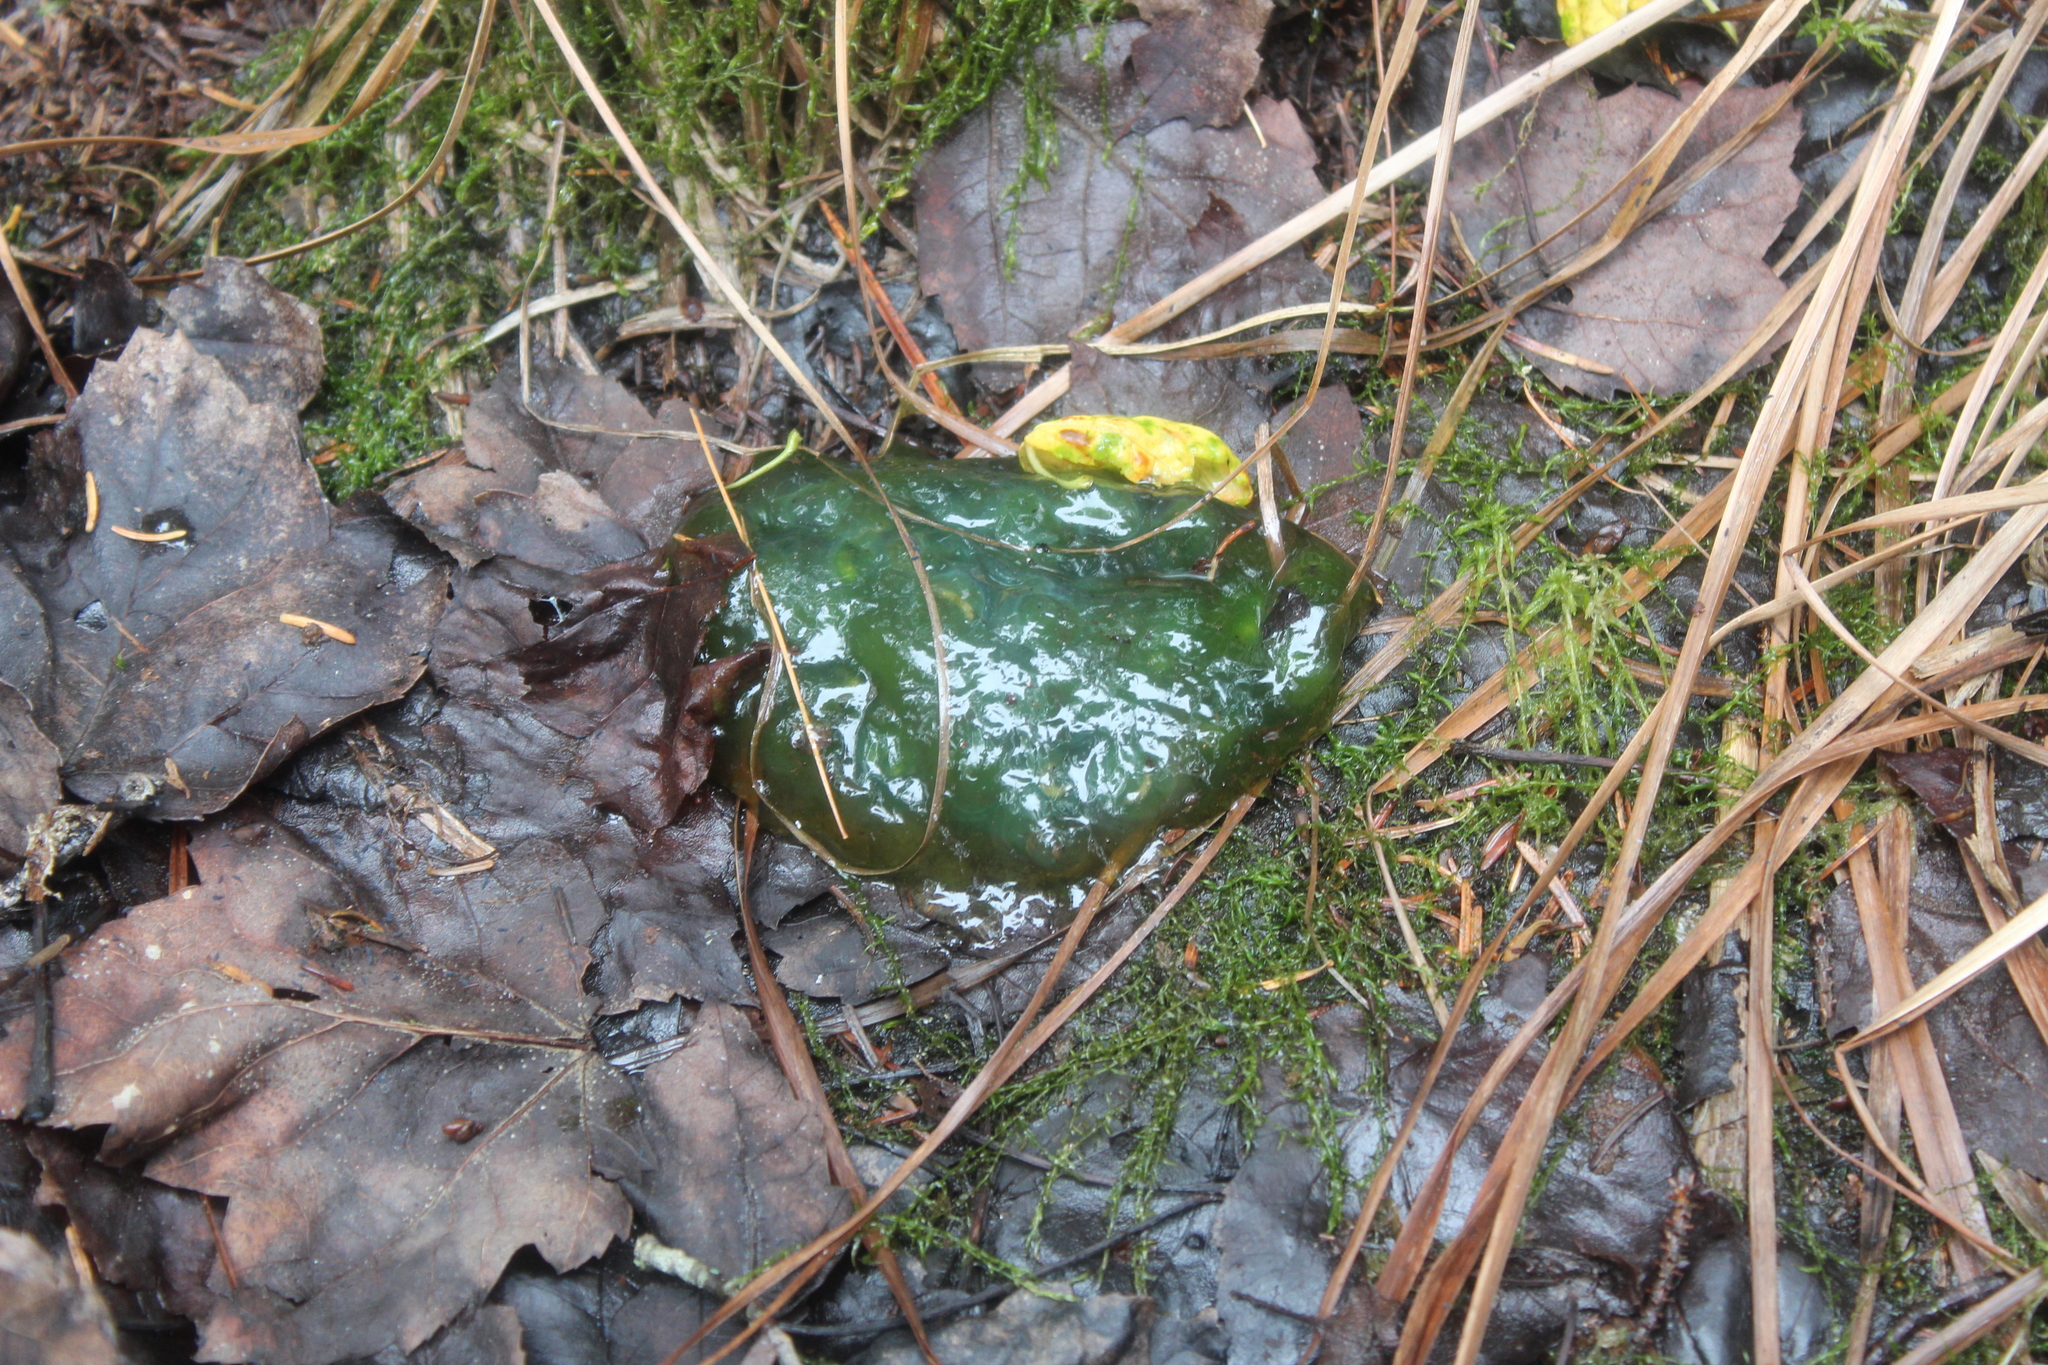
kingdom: Animalia
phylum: Chordata
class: Amphibia
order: Caudata
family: Ambystomatidae
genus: Ambystoma
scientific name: Ambystoma maculatum
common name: Spotted salamander
